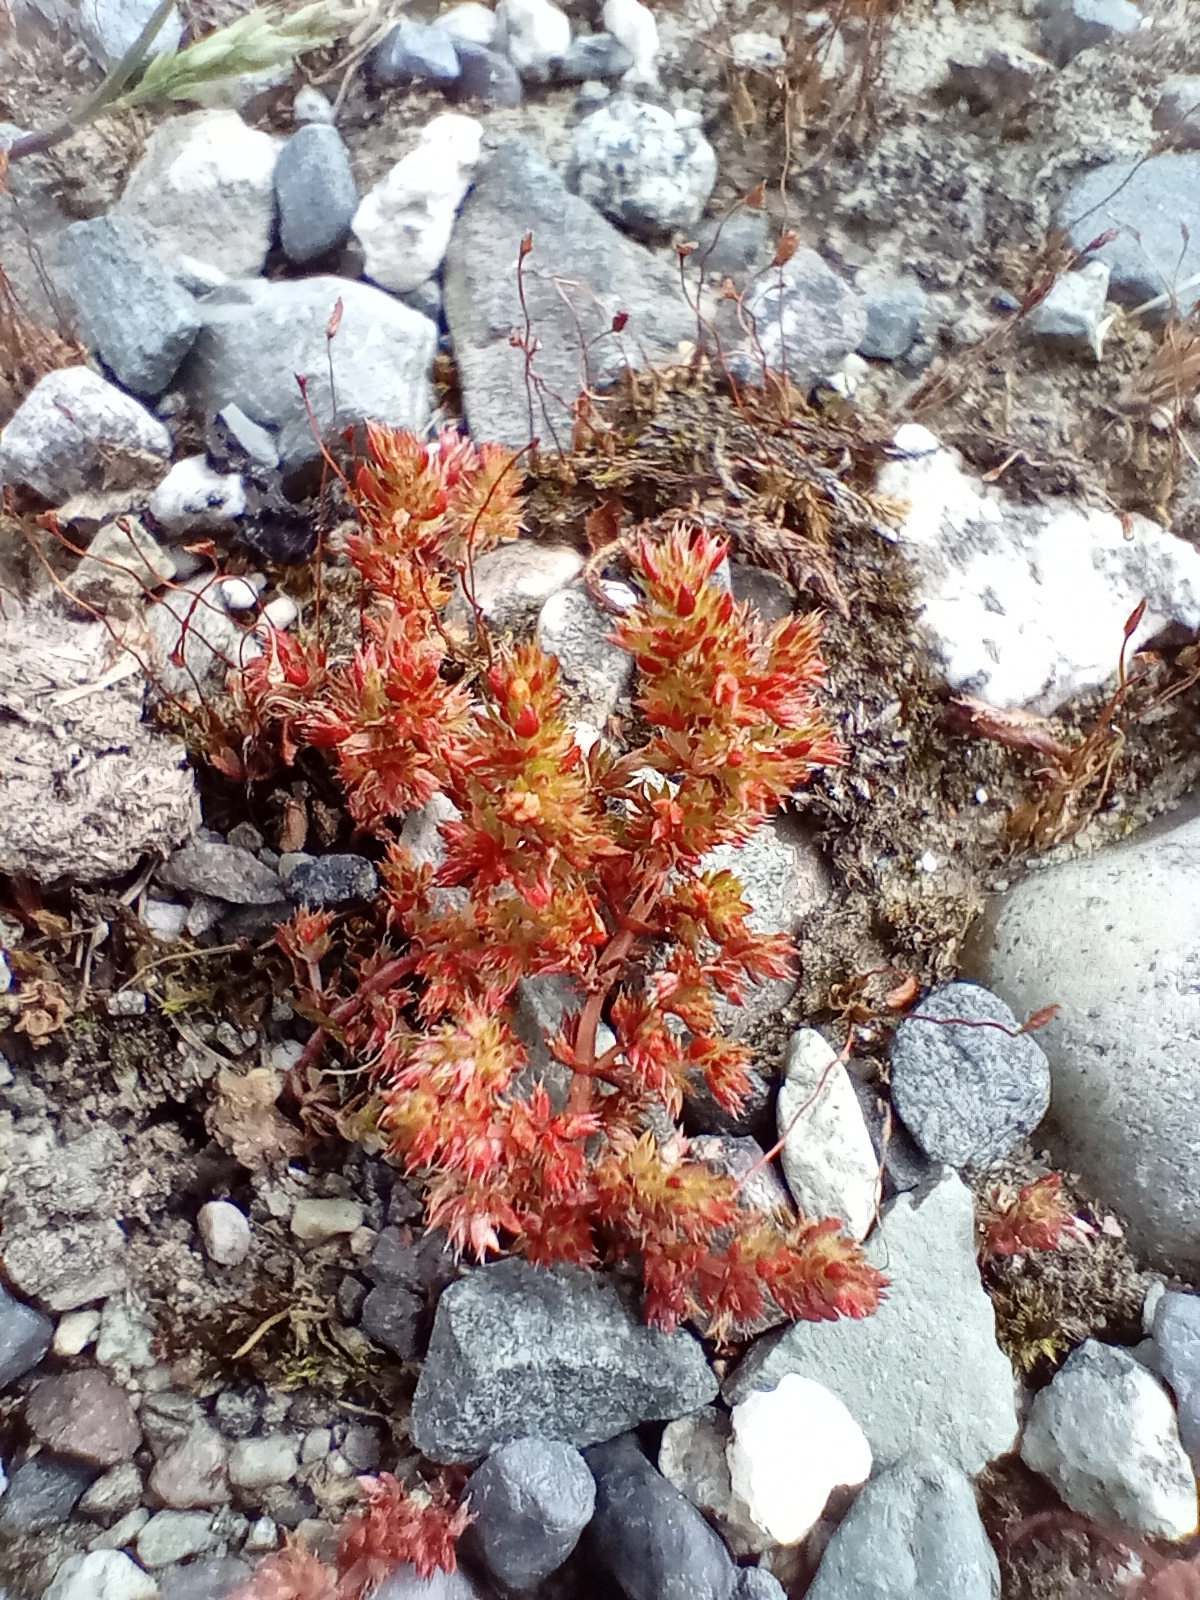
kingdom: Plantae
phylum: Tracheophyta
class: Magnoliopsida
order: Saxifragales
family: Crassulaceae
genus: Crassula
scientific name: Crassula alata
